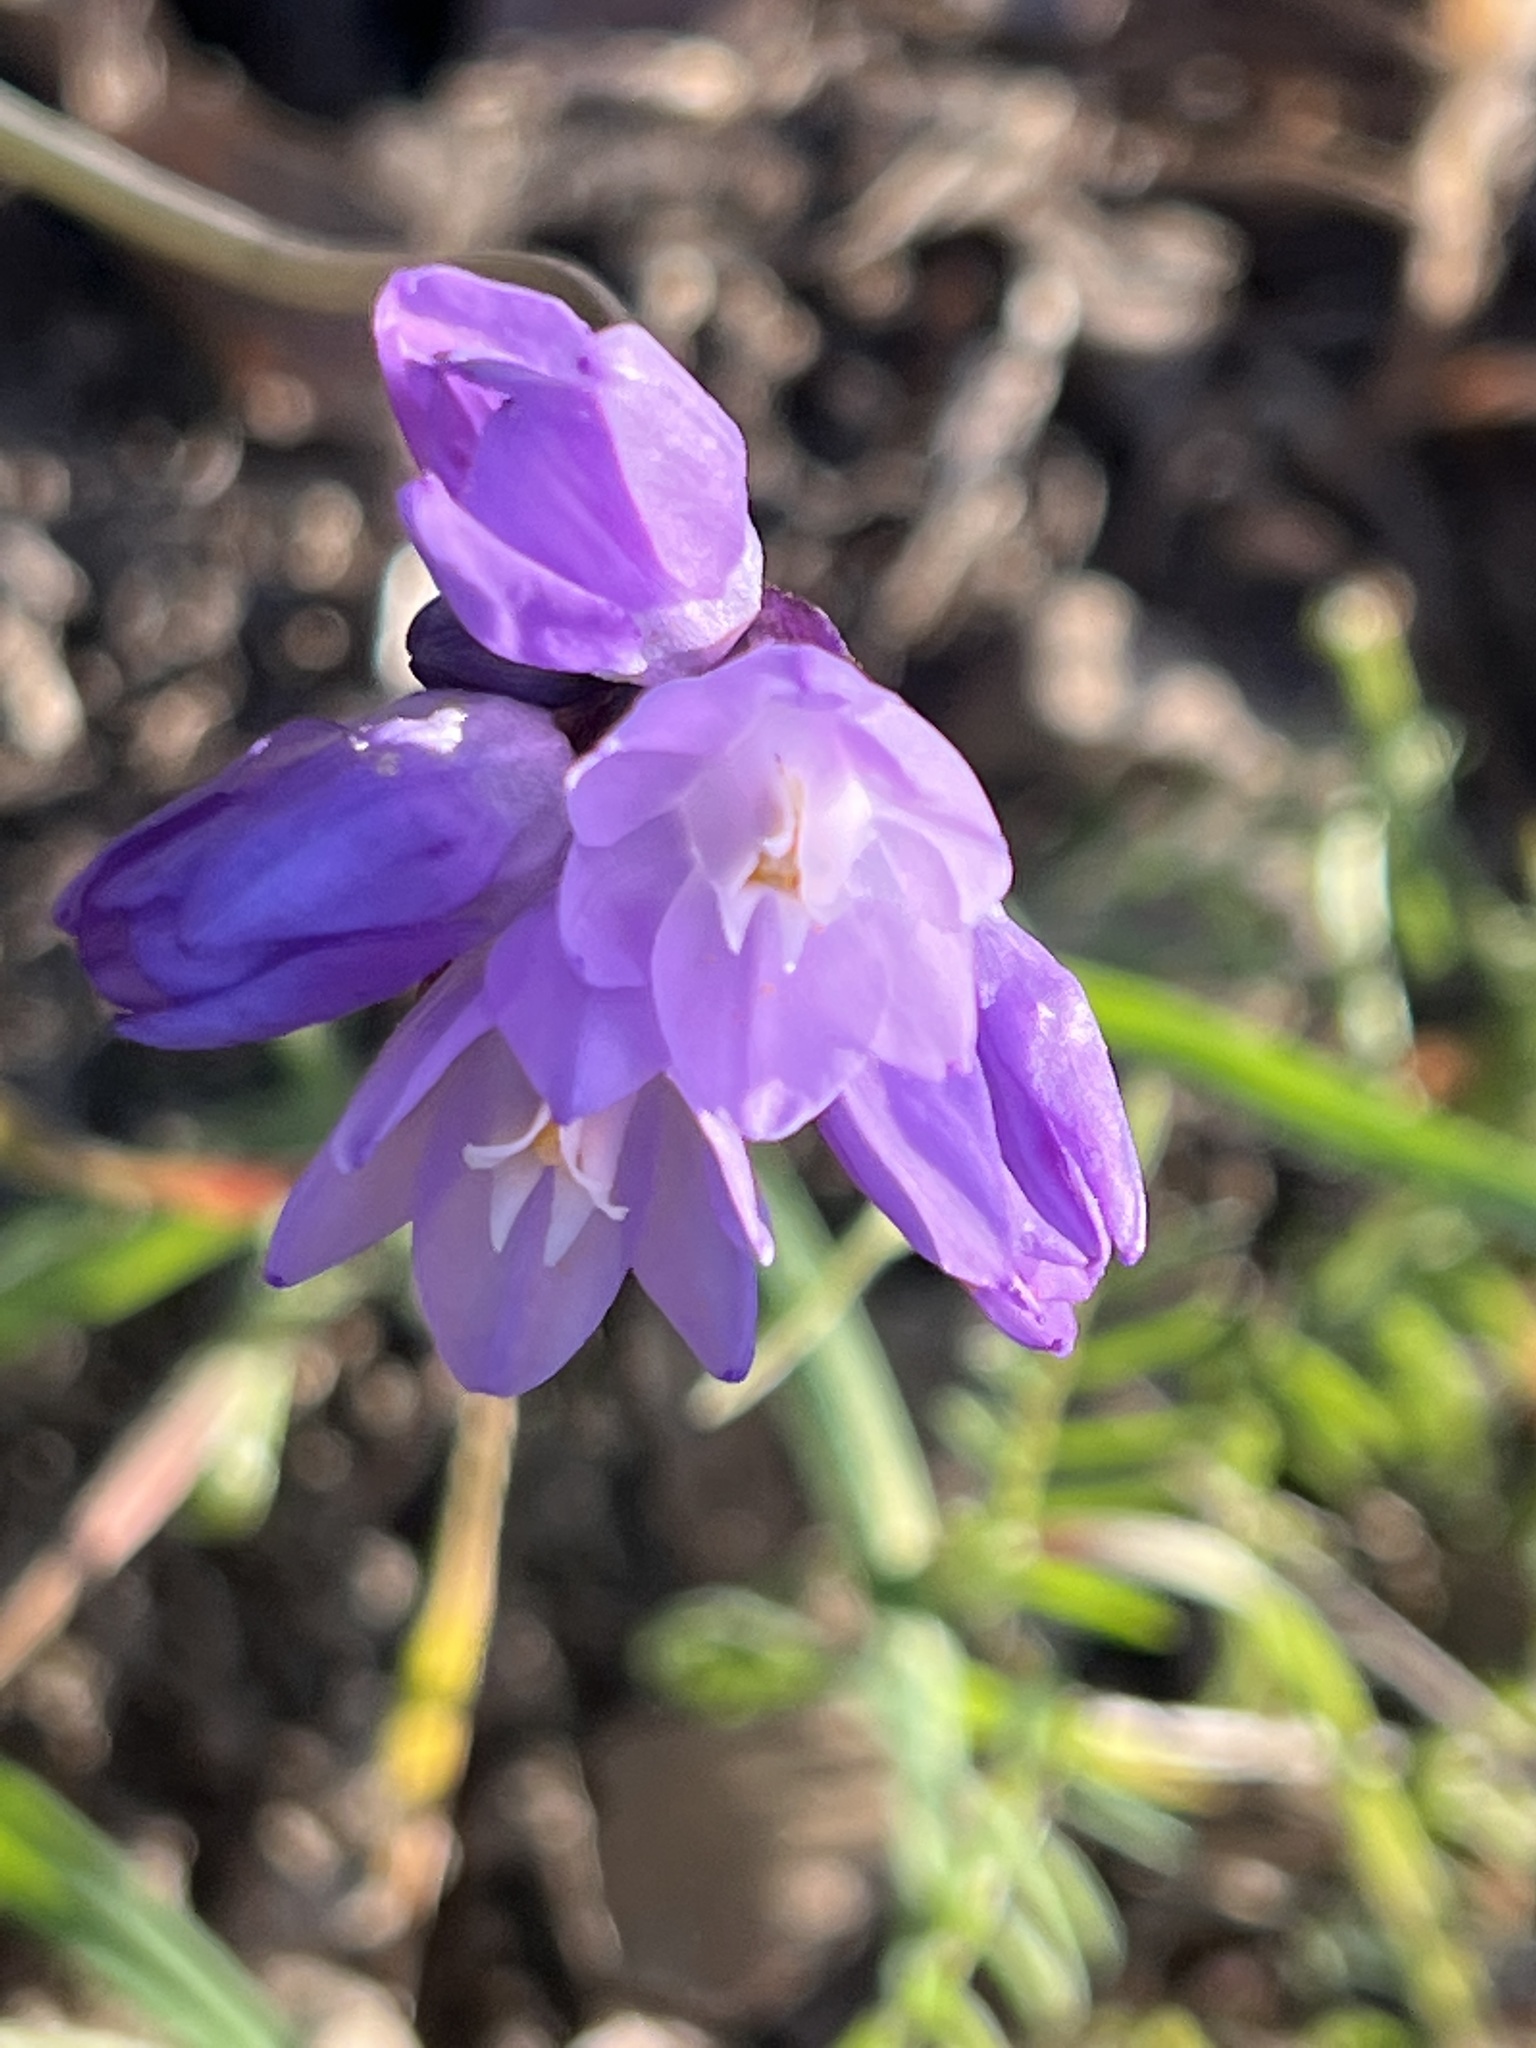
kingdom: Plantae
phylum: Tracheophyta
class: Liliopsida
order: Asparagales
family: Asparagaceae
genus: Dipterostemon
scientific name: Dipterostemon capitatus
